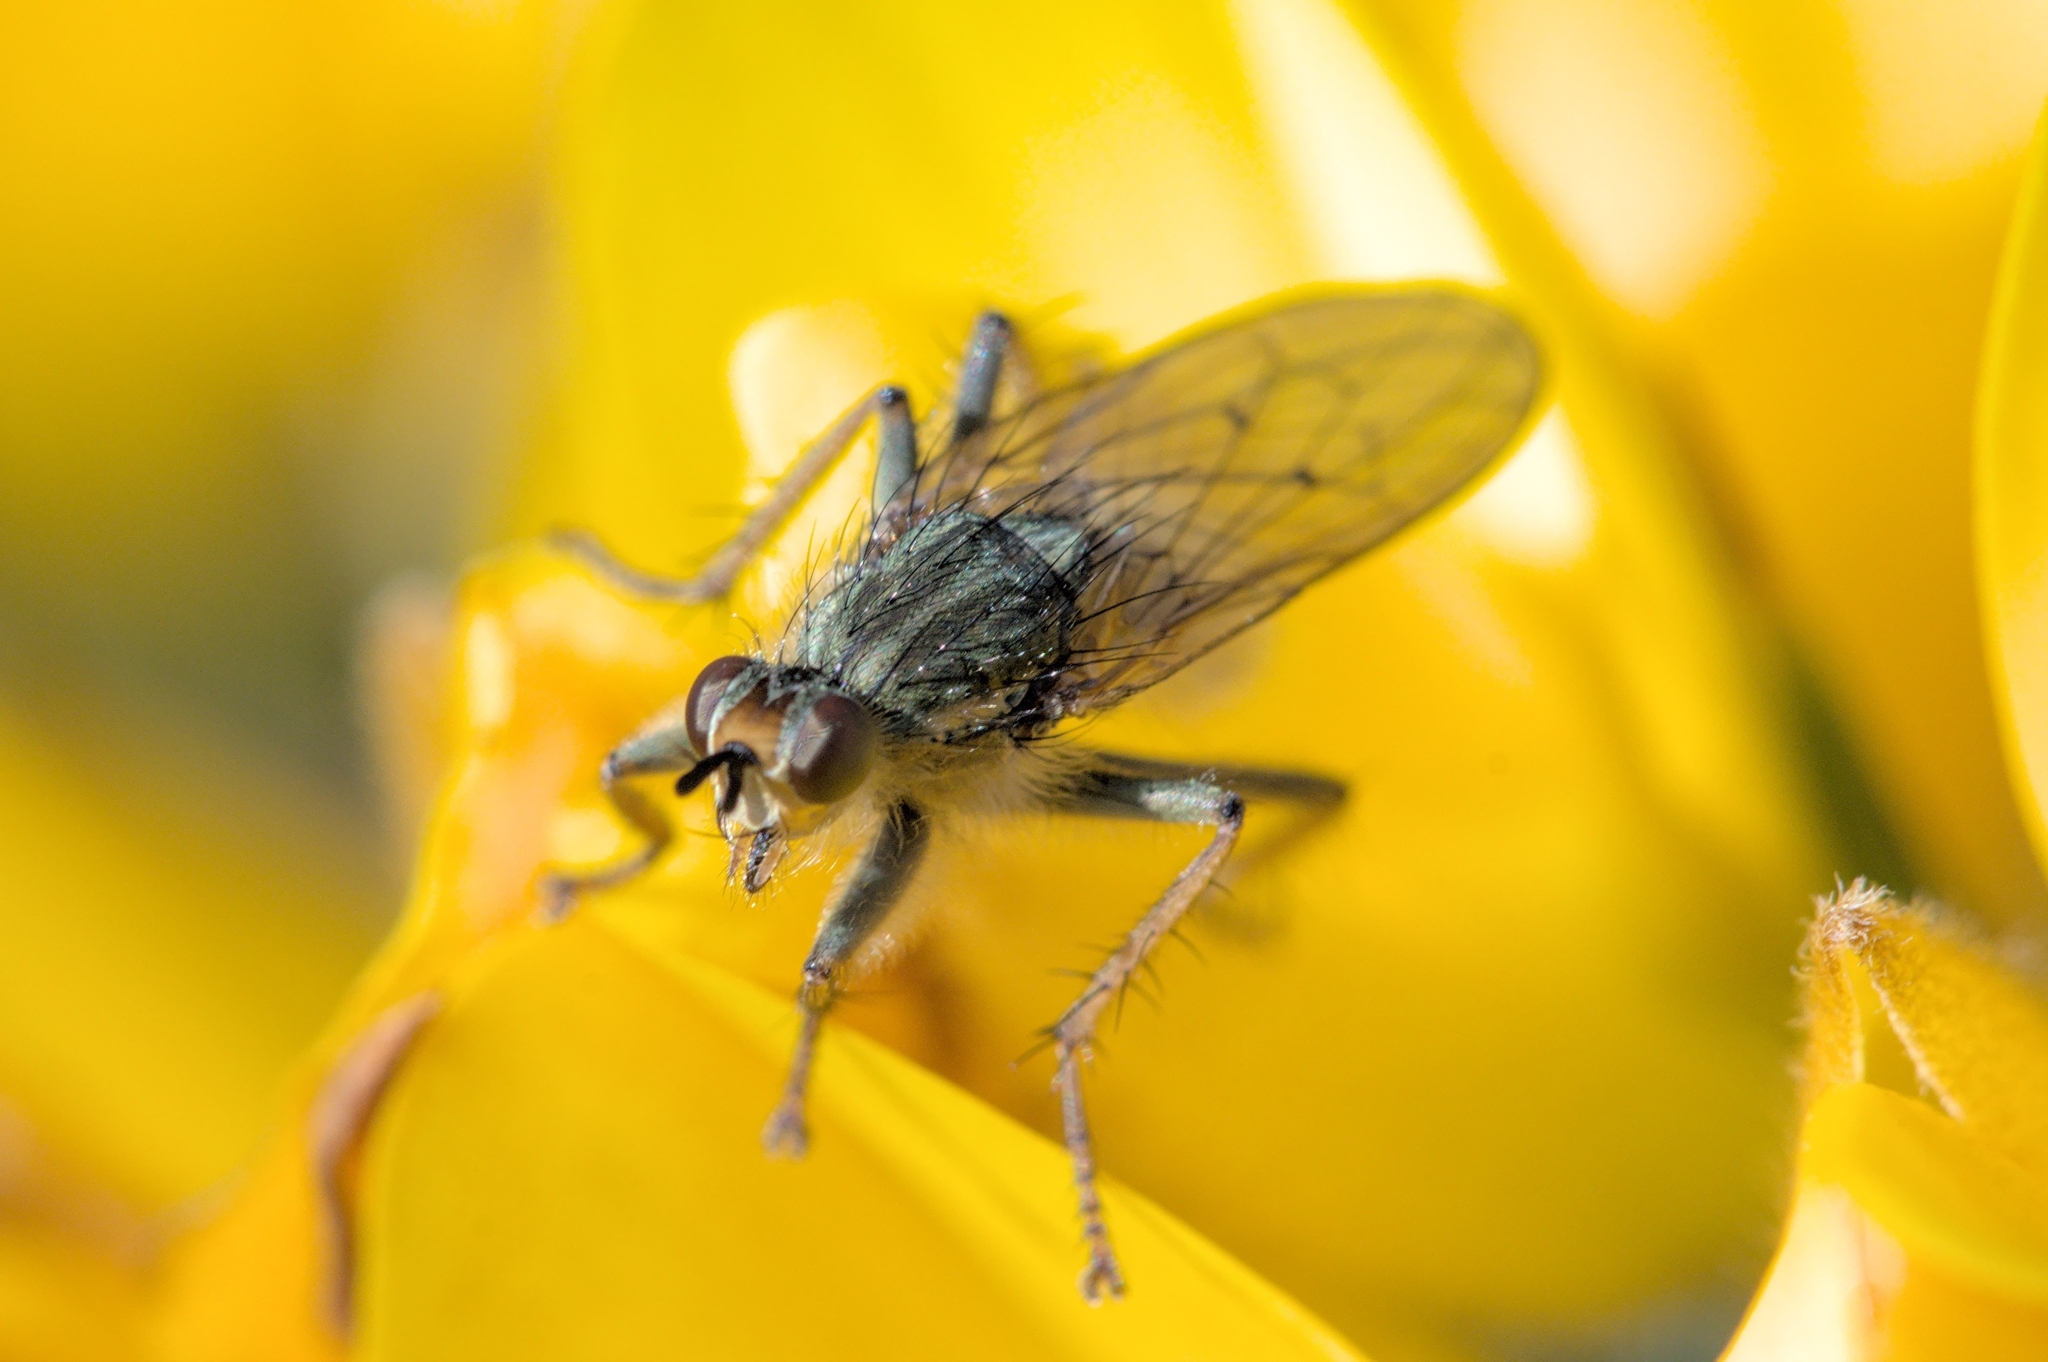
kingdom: Animalia
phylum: Arthropoda
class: Insecta
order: Diptera
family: Scathophagidae
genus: Scathophaga
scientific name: Scathophaga stercoraria
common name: Yellow dung fly
